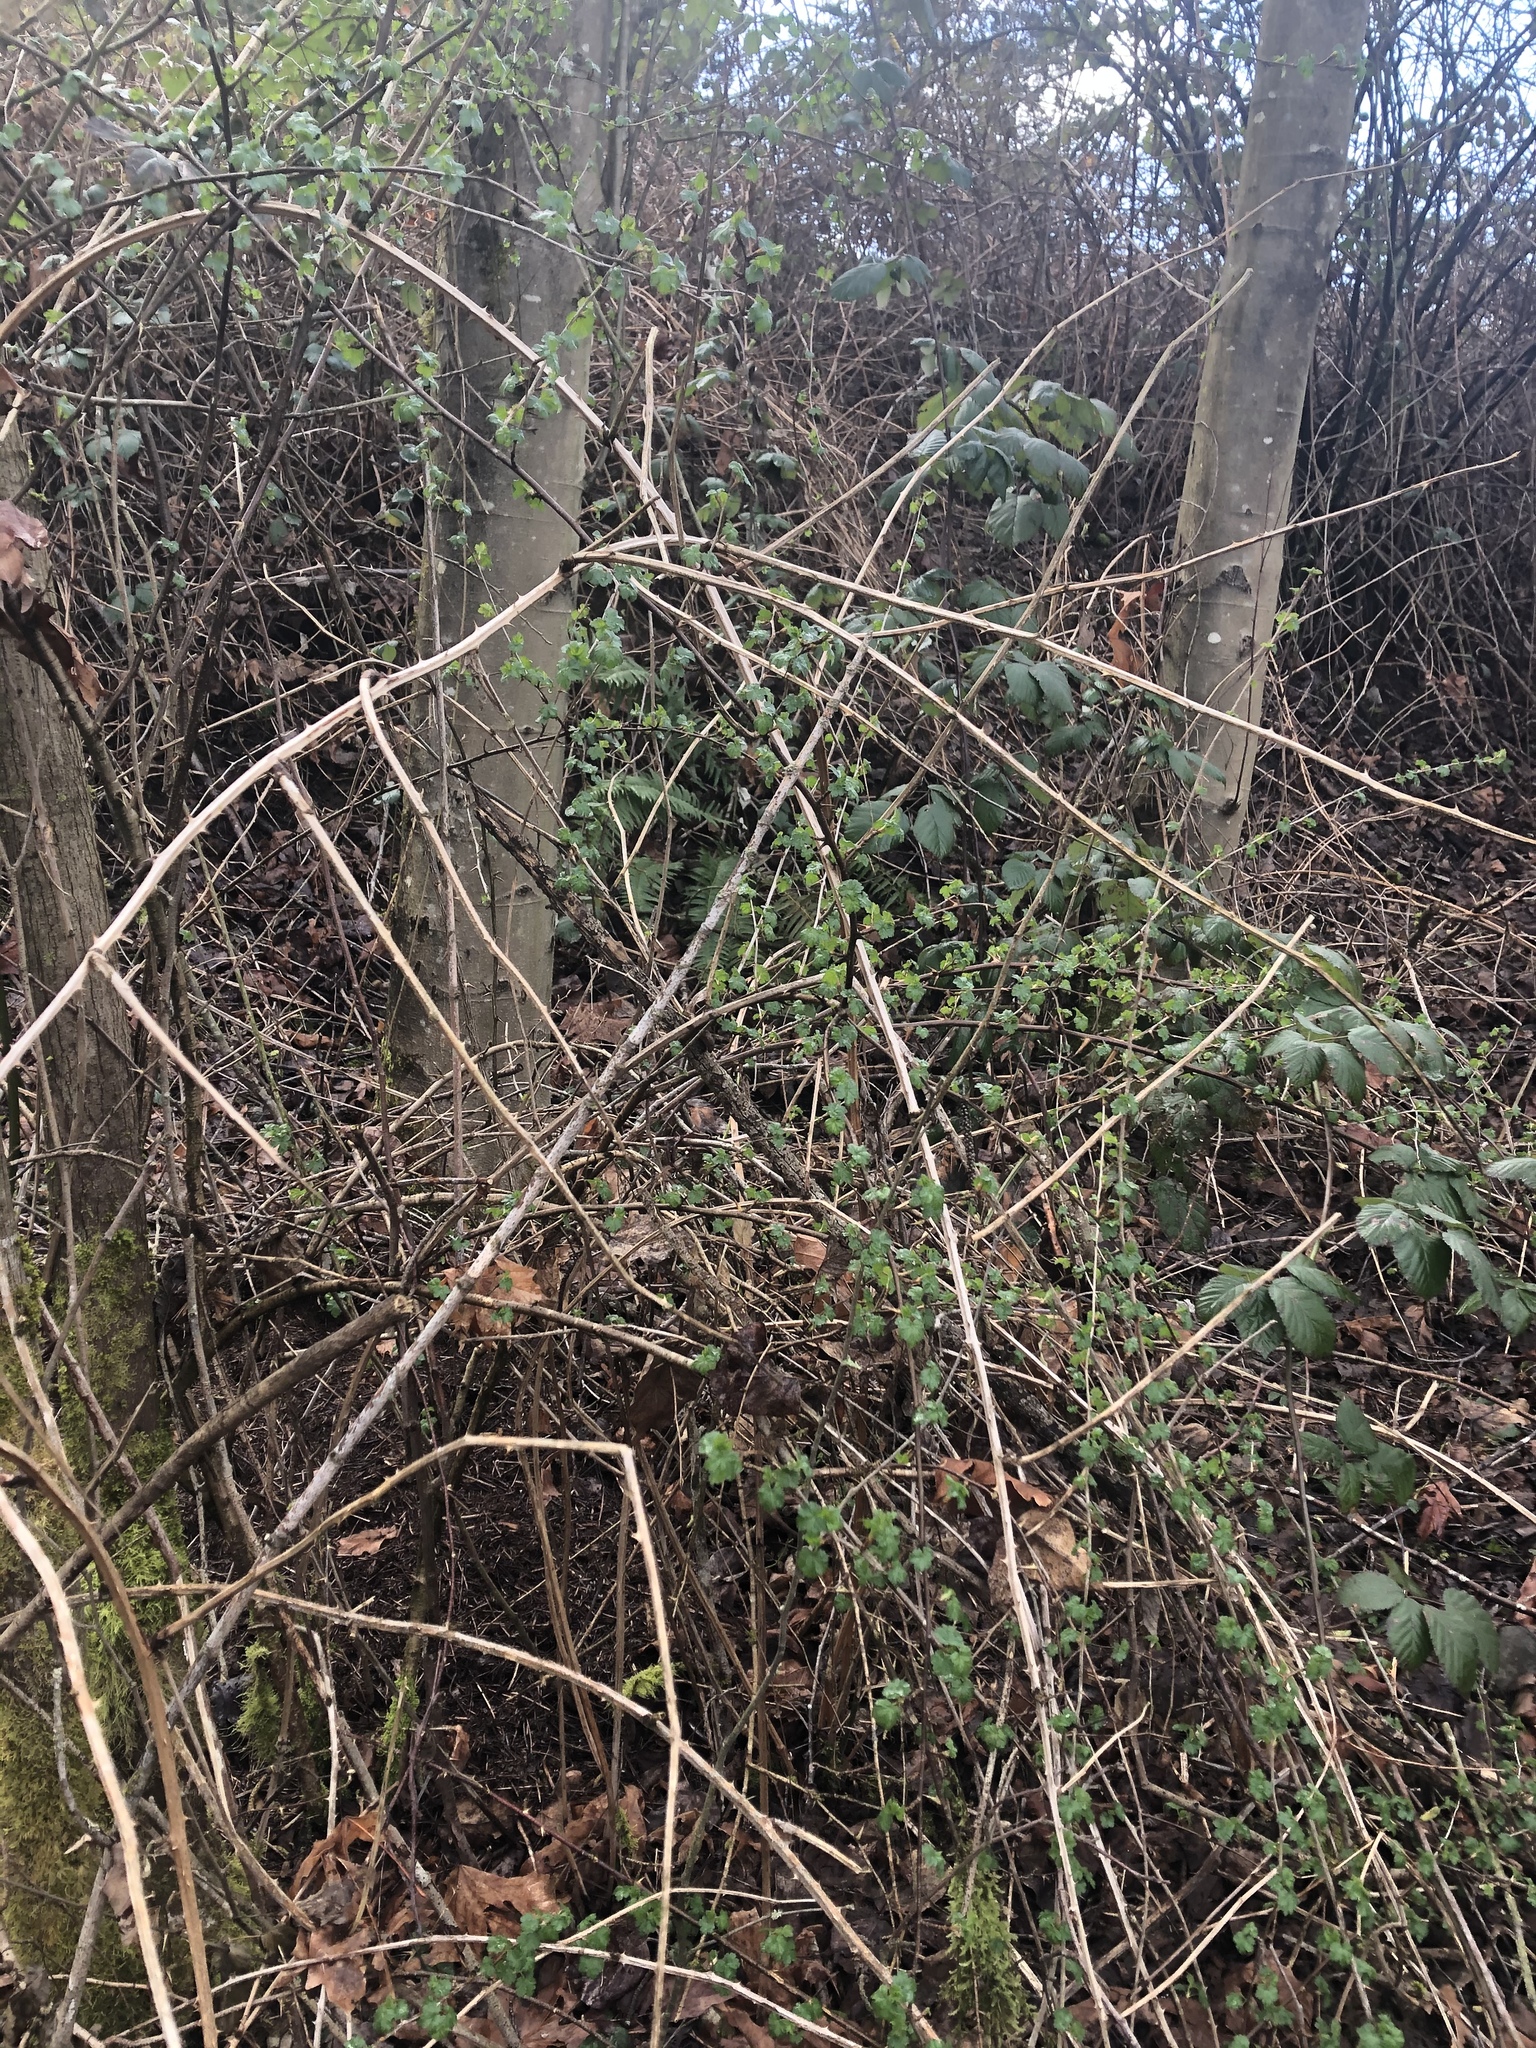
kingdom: Plantae
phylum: Tracheophyta
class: Magnoliopsida
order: Saxifragales
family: Grossulariaceae
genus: Ribes
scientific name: Ribes divaricatum
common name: Wild black gooseberry
